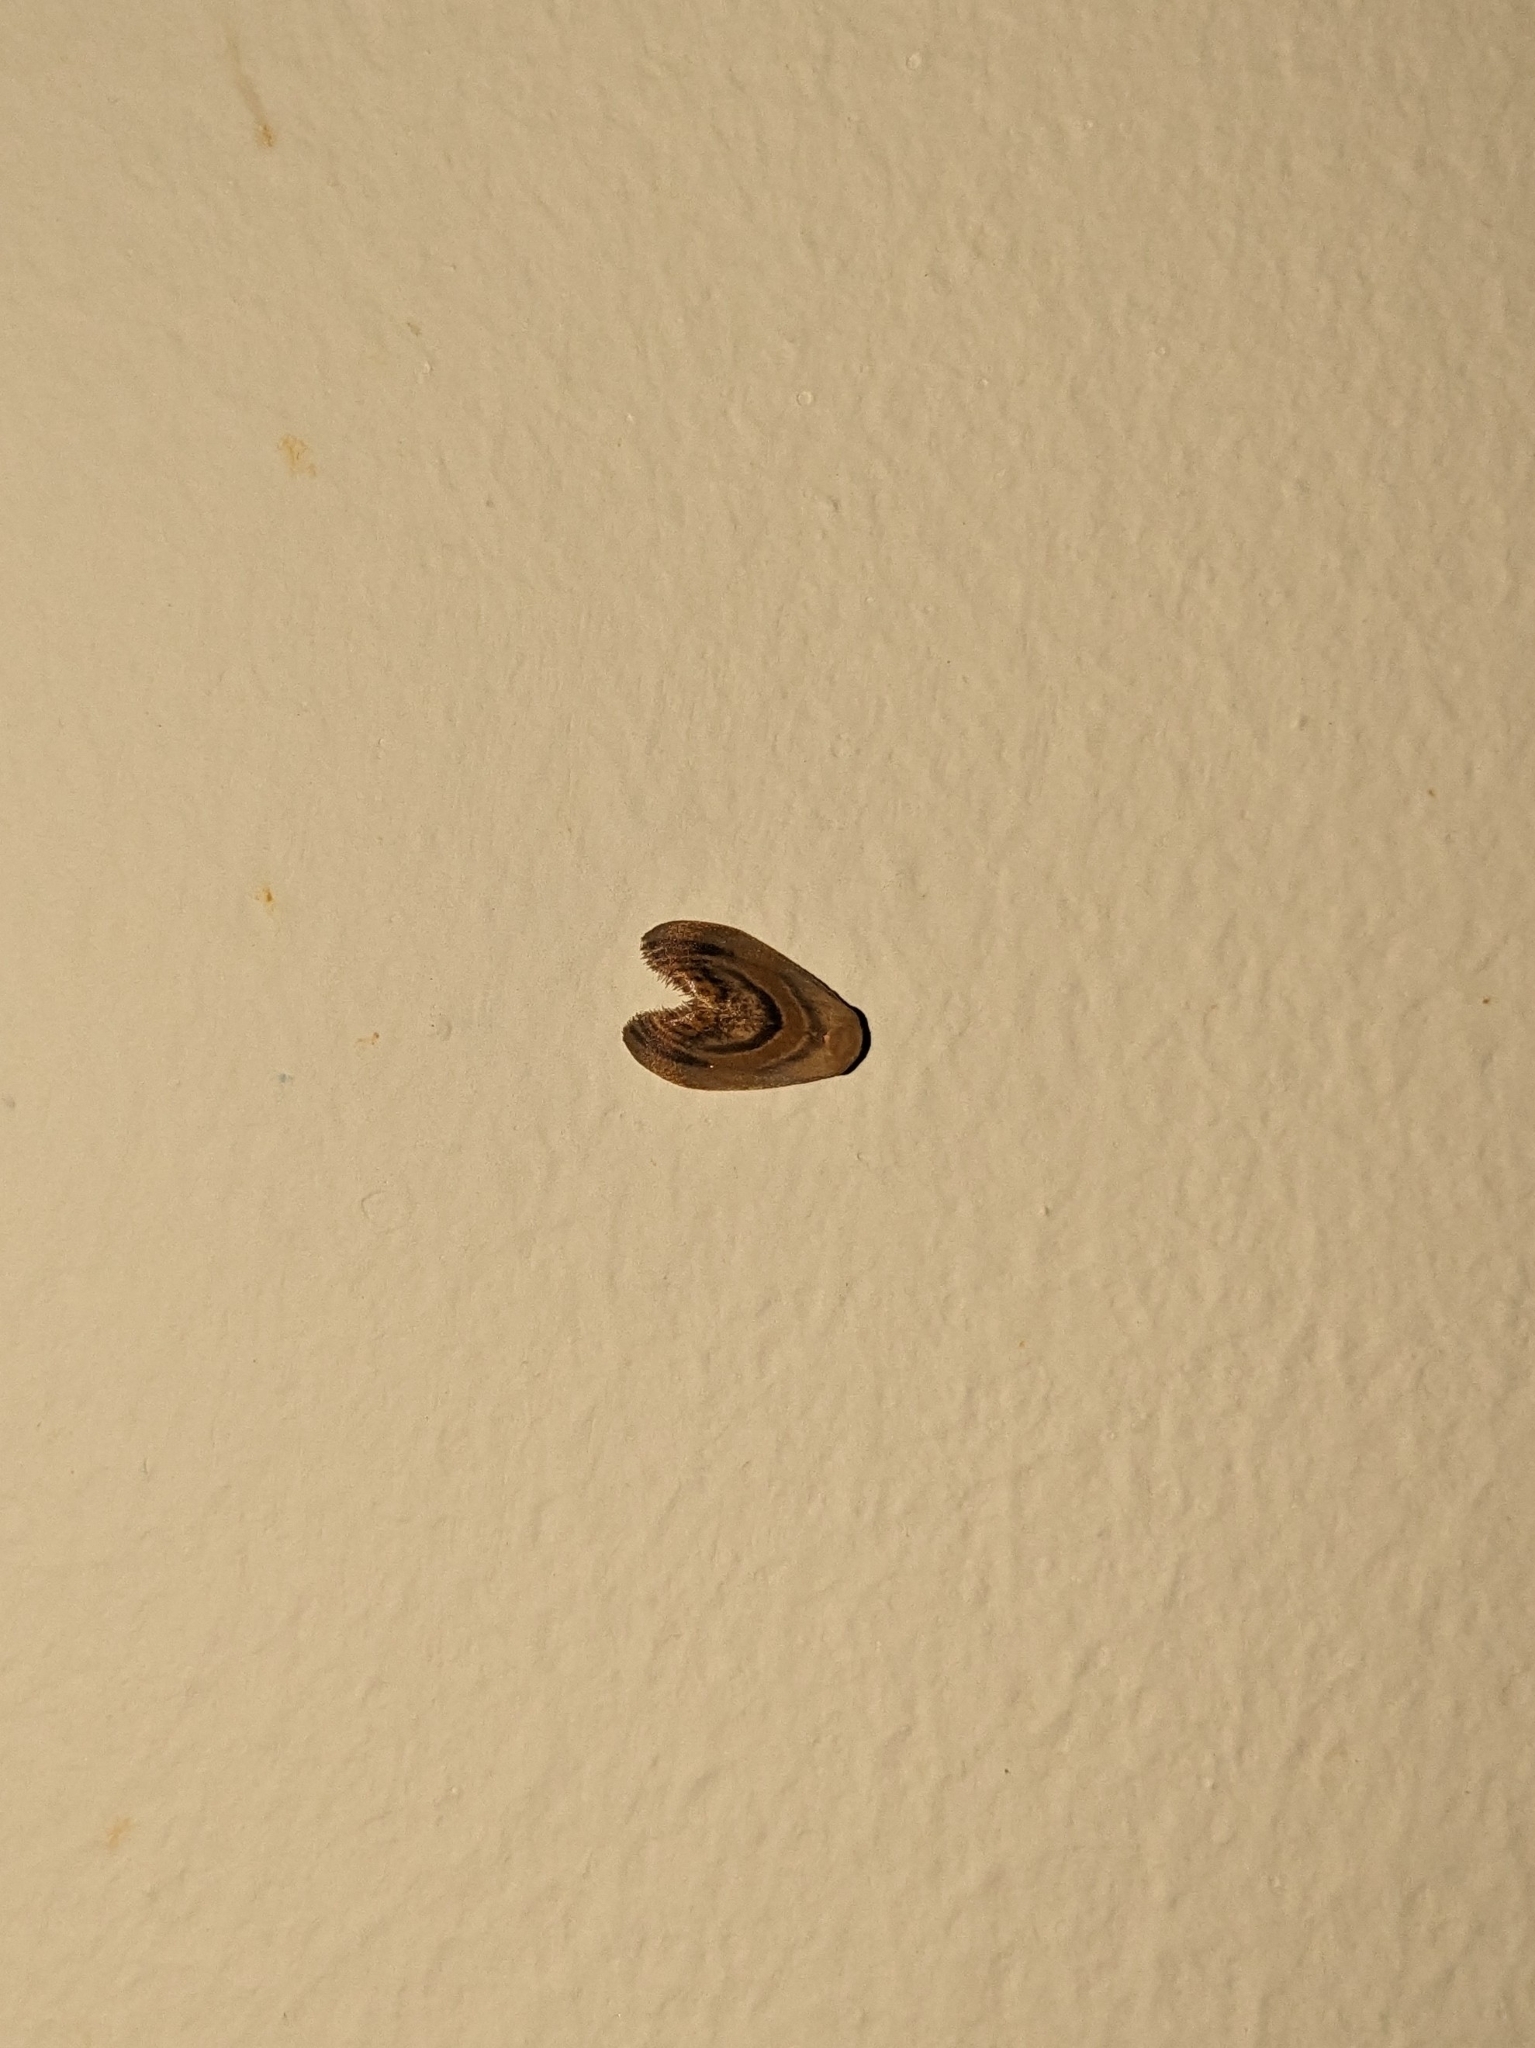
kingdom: Animalia
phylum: Arthropoda
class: Insecta
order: Lepidoptera
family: Erebidae
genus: Tropacme
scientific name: Tropacme cupreimargo
